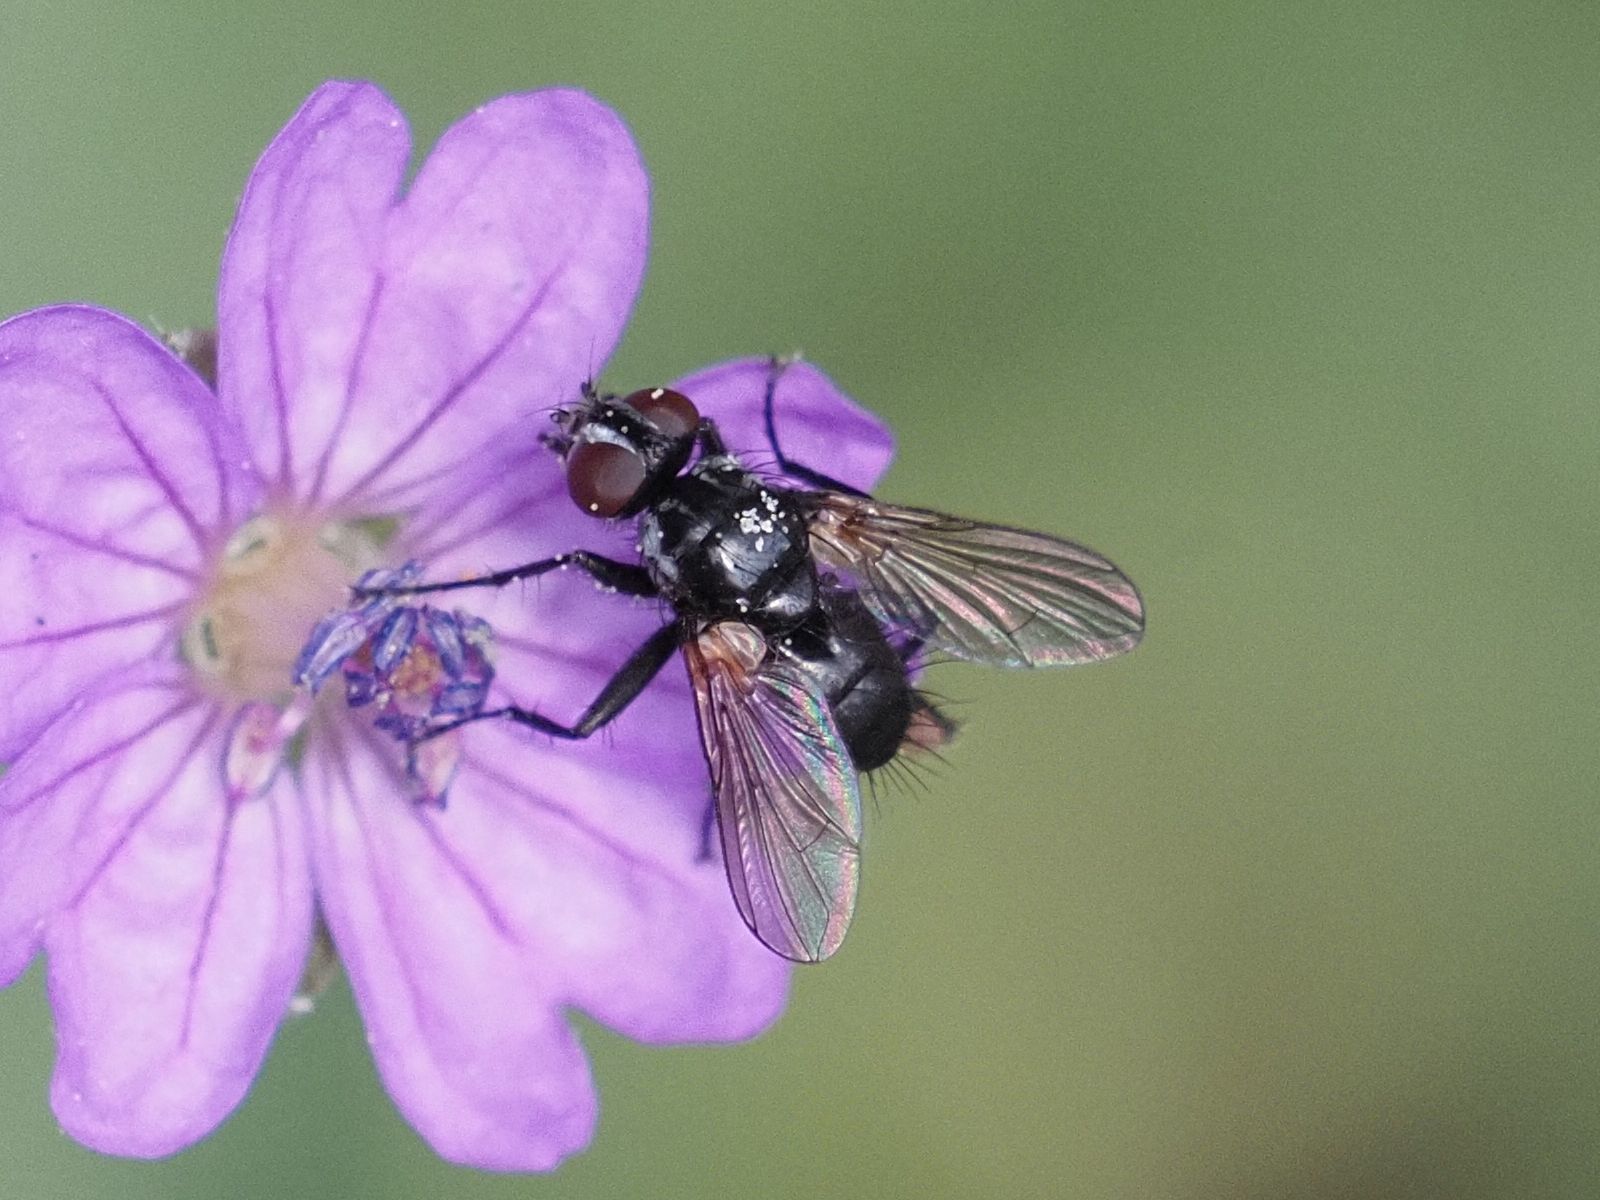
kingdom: Animalia
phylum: Arthropoda
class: Insecta
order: Diptera
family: Tachinidae
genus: Phania
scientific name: Phania funesta
